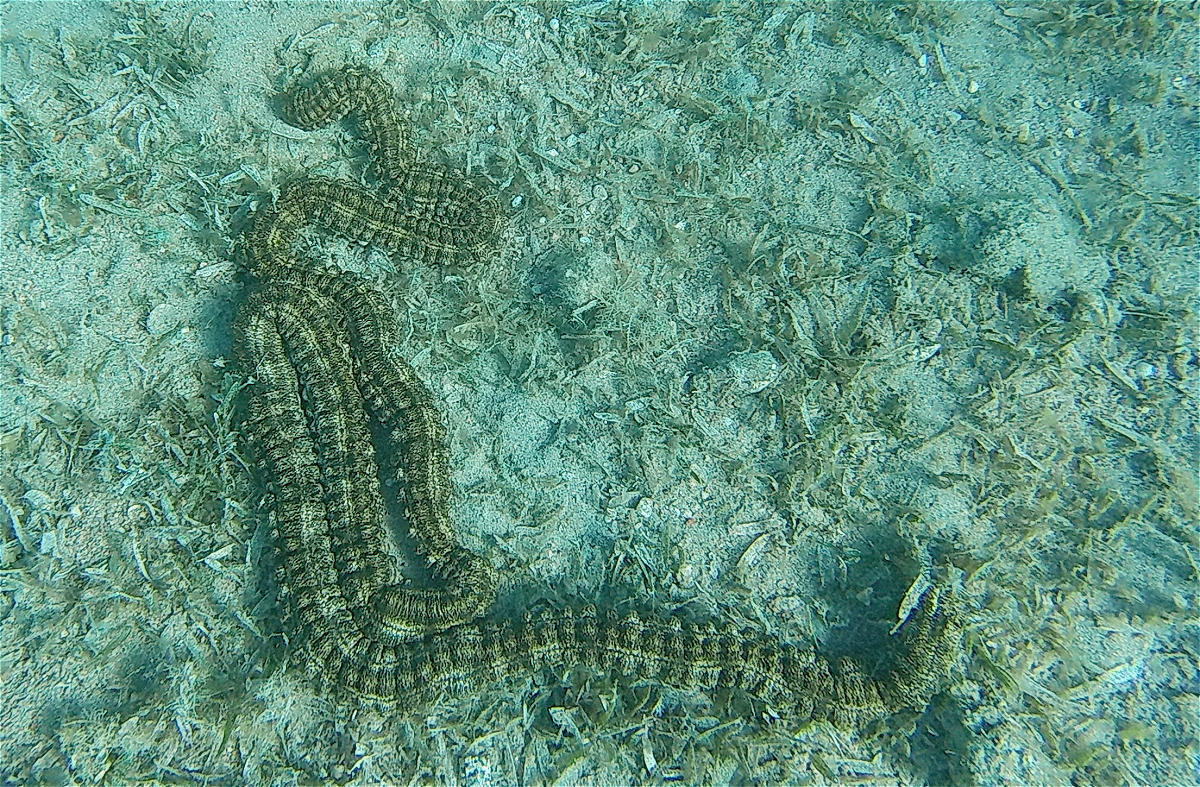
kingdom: Animalia
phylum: Echinodermata
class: Holothuroidea
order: Apodida
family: Synaptidae
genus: Synapta
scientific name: Synapta maculata
